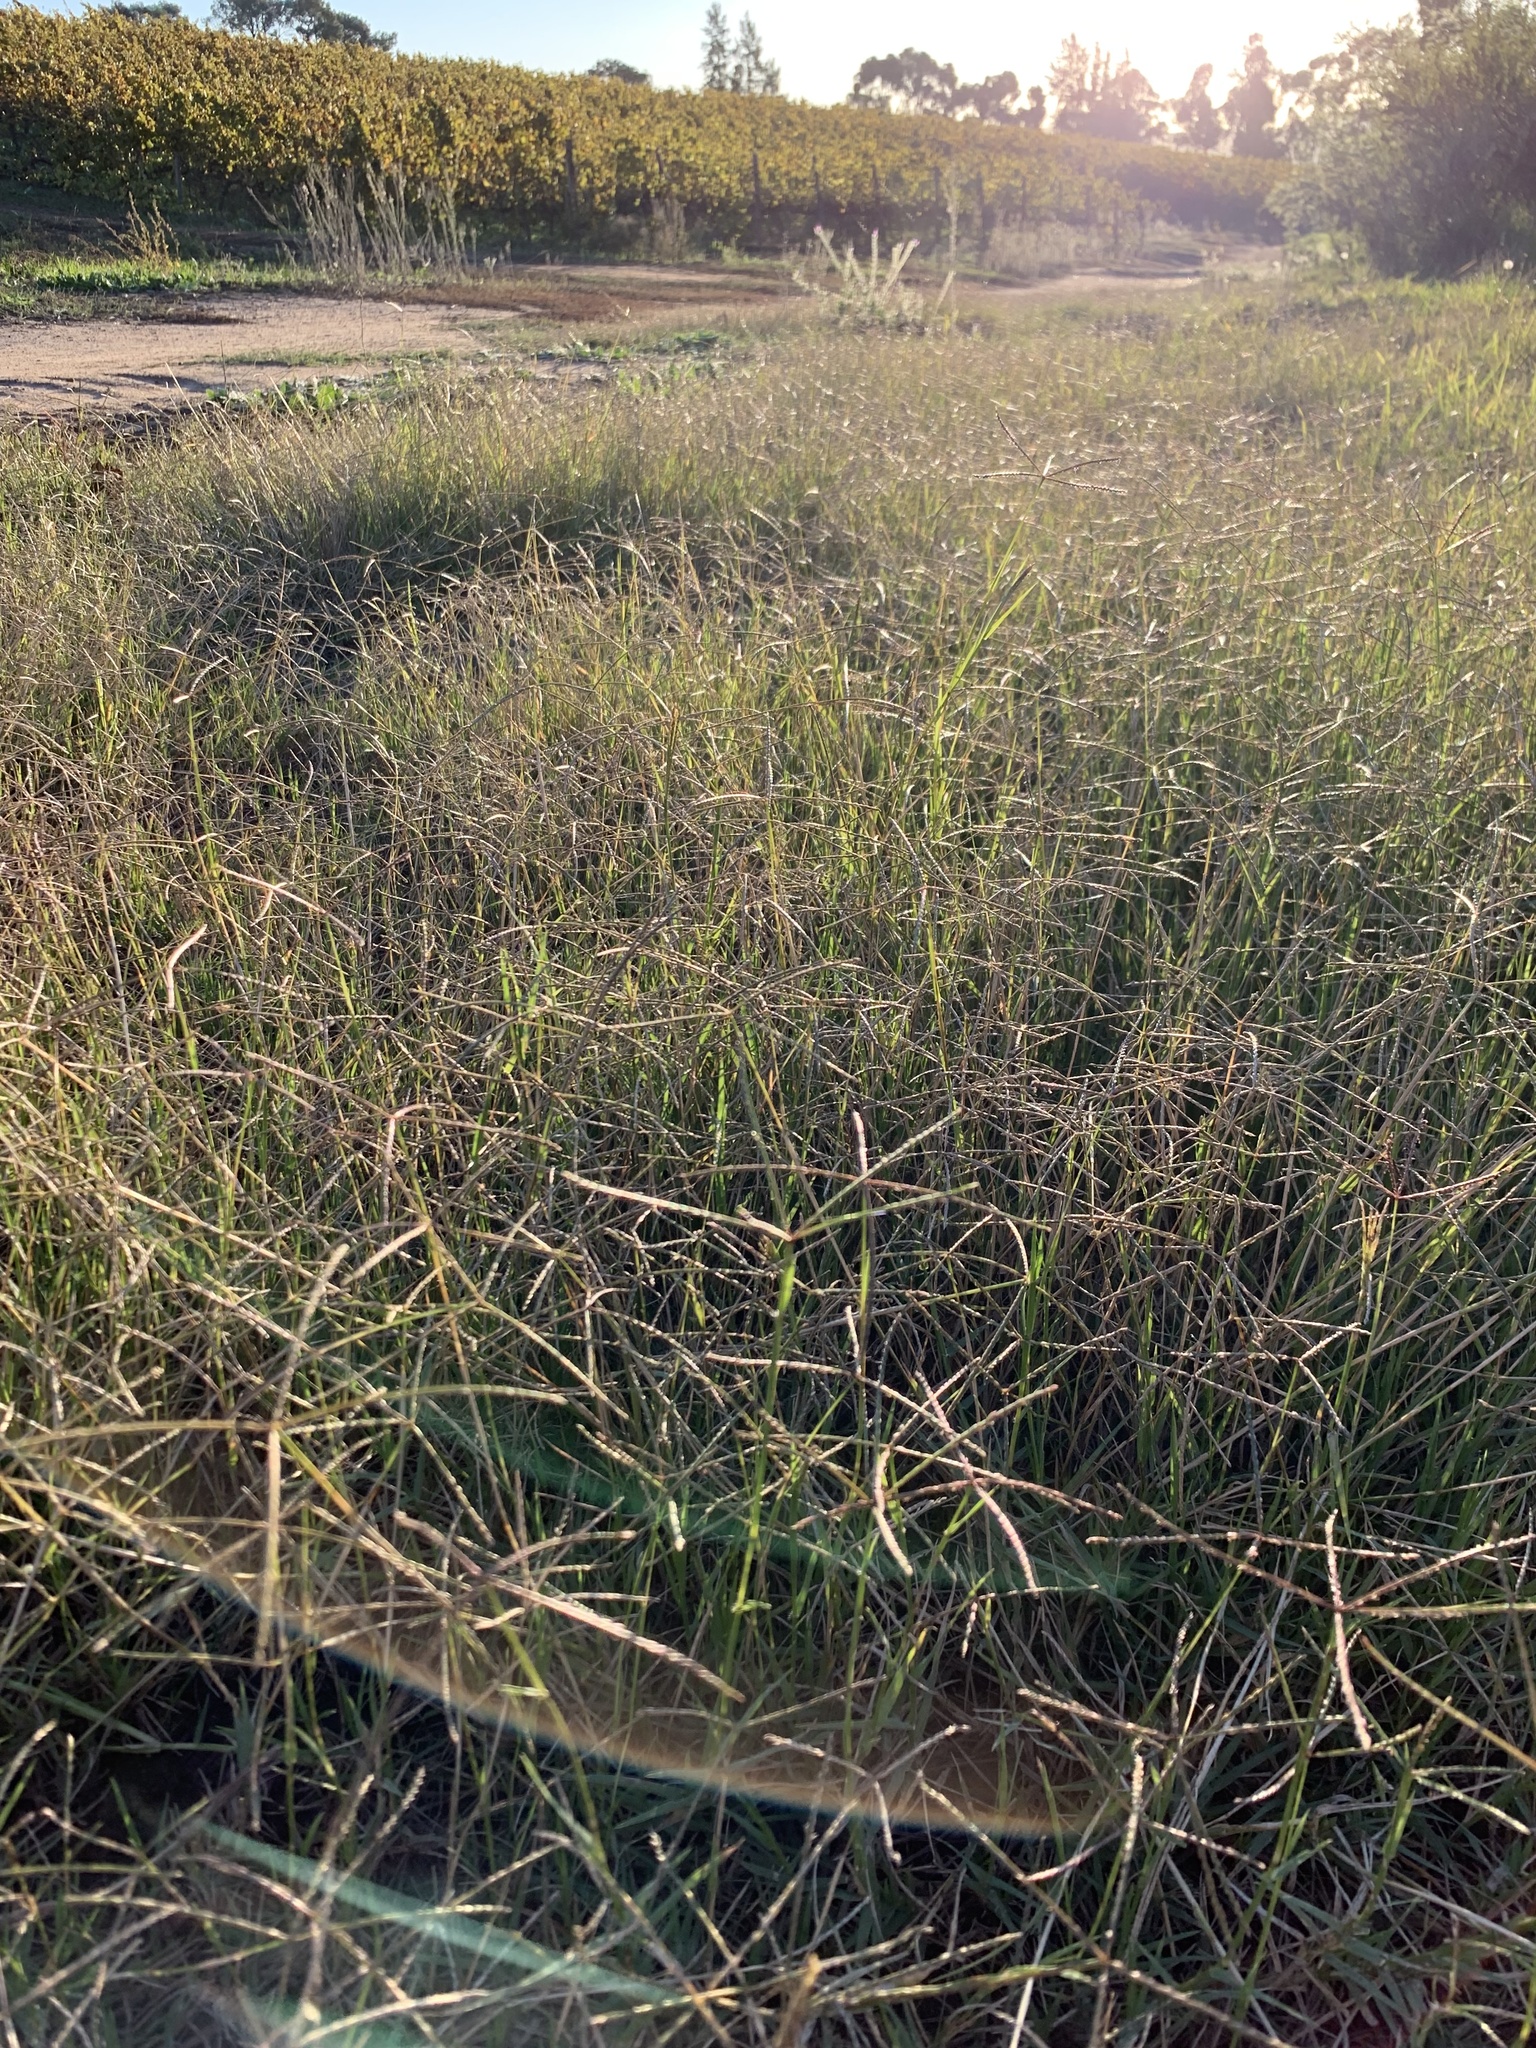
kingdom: Plantae
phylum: Tracheophyta
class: Liliopsida
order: Poales
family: Poaceae
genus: Cynodon
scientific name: Cynodon dactylon
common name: Bermuda grass
